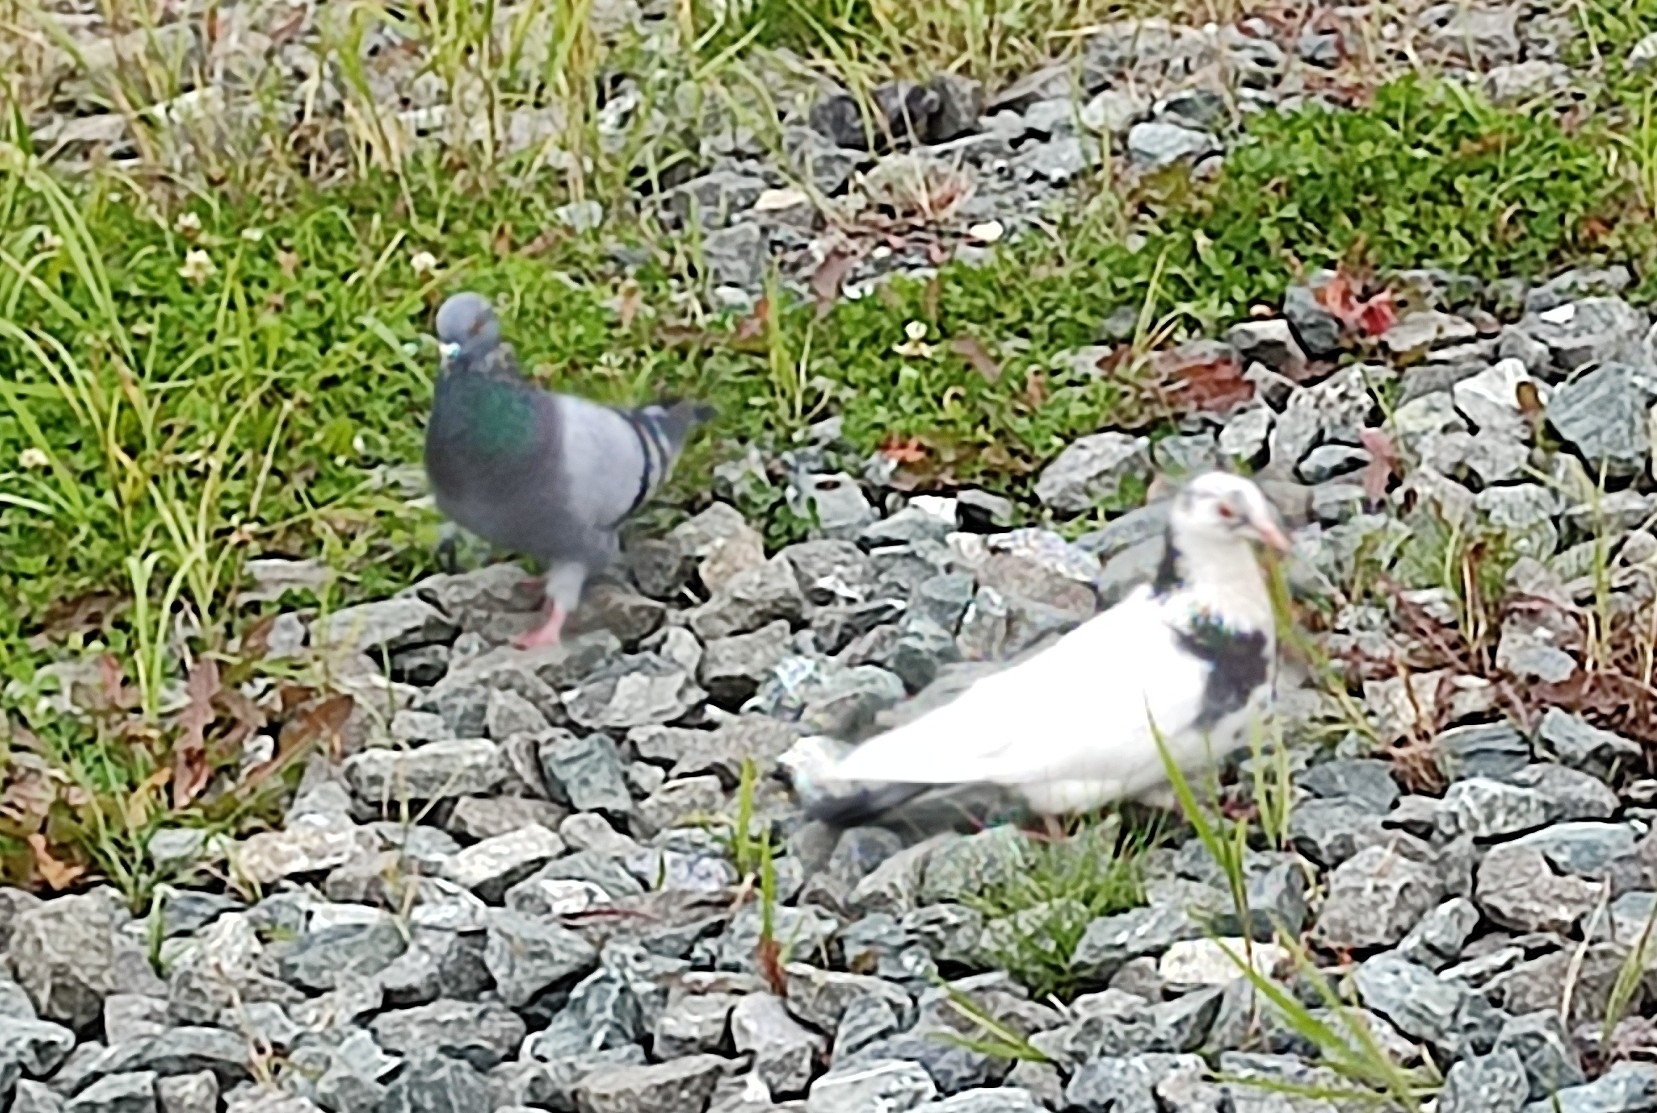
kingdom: Animalia
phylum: Chordata
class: Aves
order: Columbiformes
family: Columbidae
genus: Columba
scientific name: Columba livia
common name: Rock pigeon
